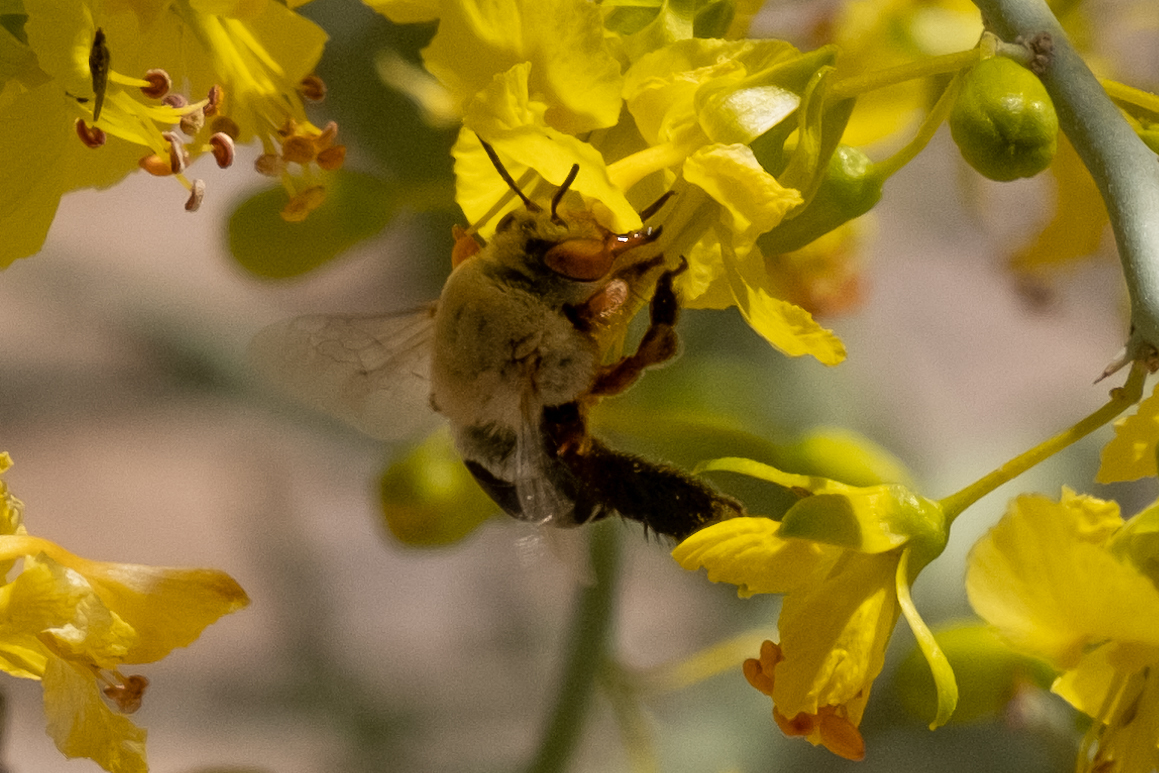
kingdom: Animalia
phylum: Arthropoda
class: Insecta
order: Hymenoptera
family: Apidae
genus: Centris
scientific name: Centris rhodopus
